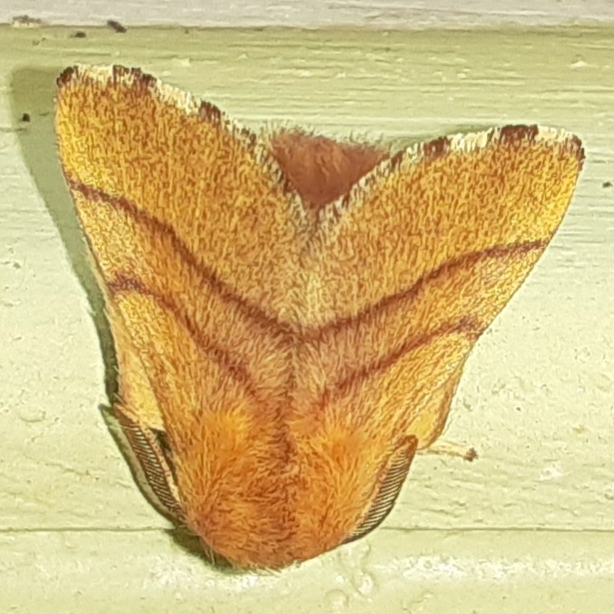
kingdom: Animalia
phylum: Arthropoda
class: Insecta
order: Lepidoptera
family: Lasiocampidae
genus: Malacosoma
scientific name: Malacosoma disstria
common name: Forest tent caterpillar
